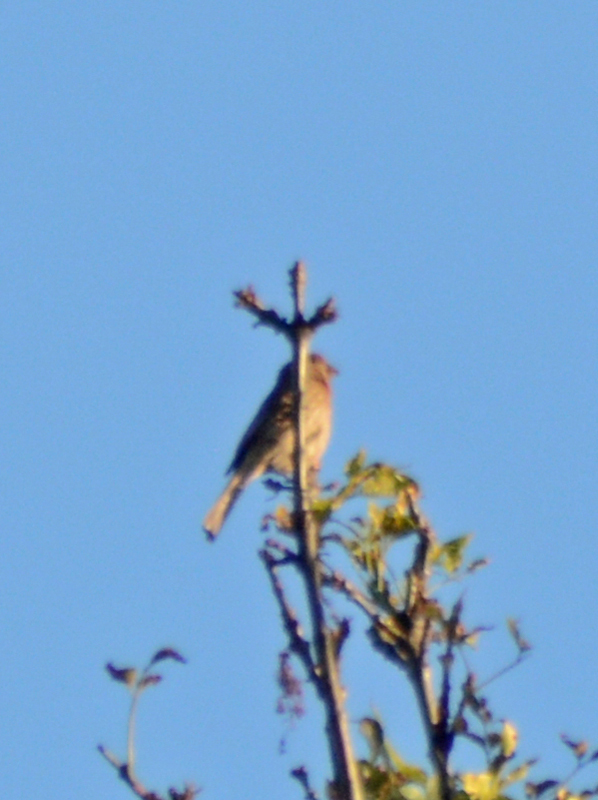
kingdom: Animalia
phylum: Chordata
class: Aves
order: Passeriformes
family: Fringillidae
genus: Haemorhous
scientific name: Haemorhous mexicanus
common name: House finch
